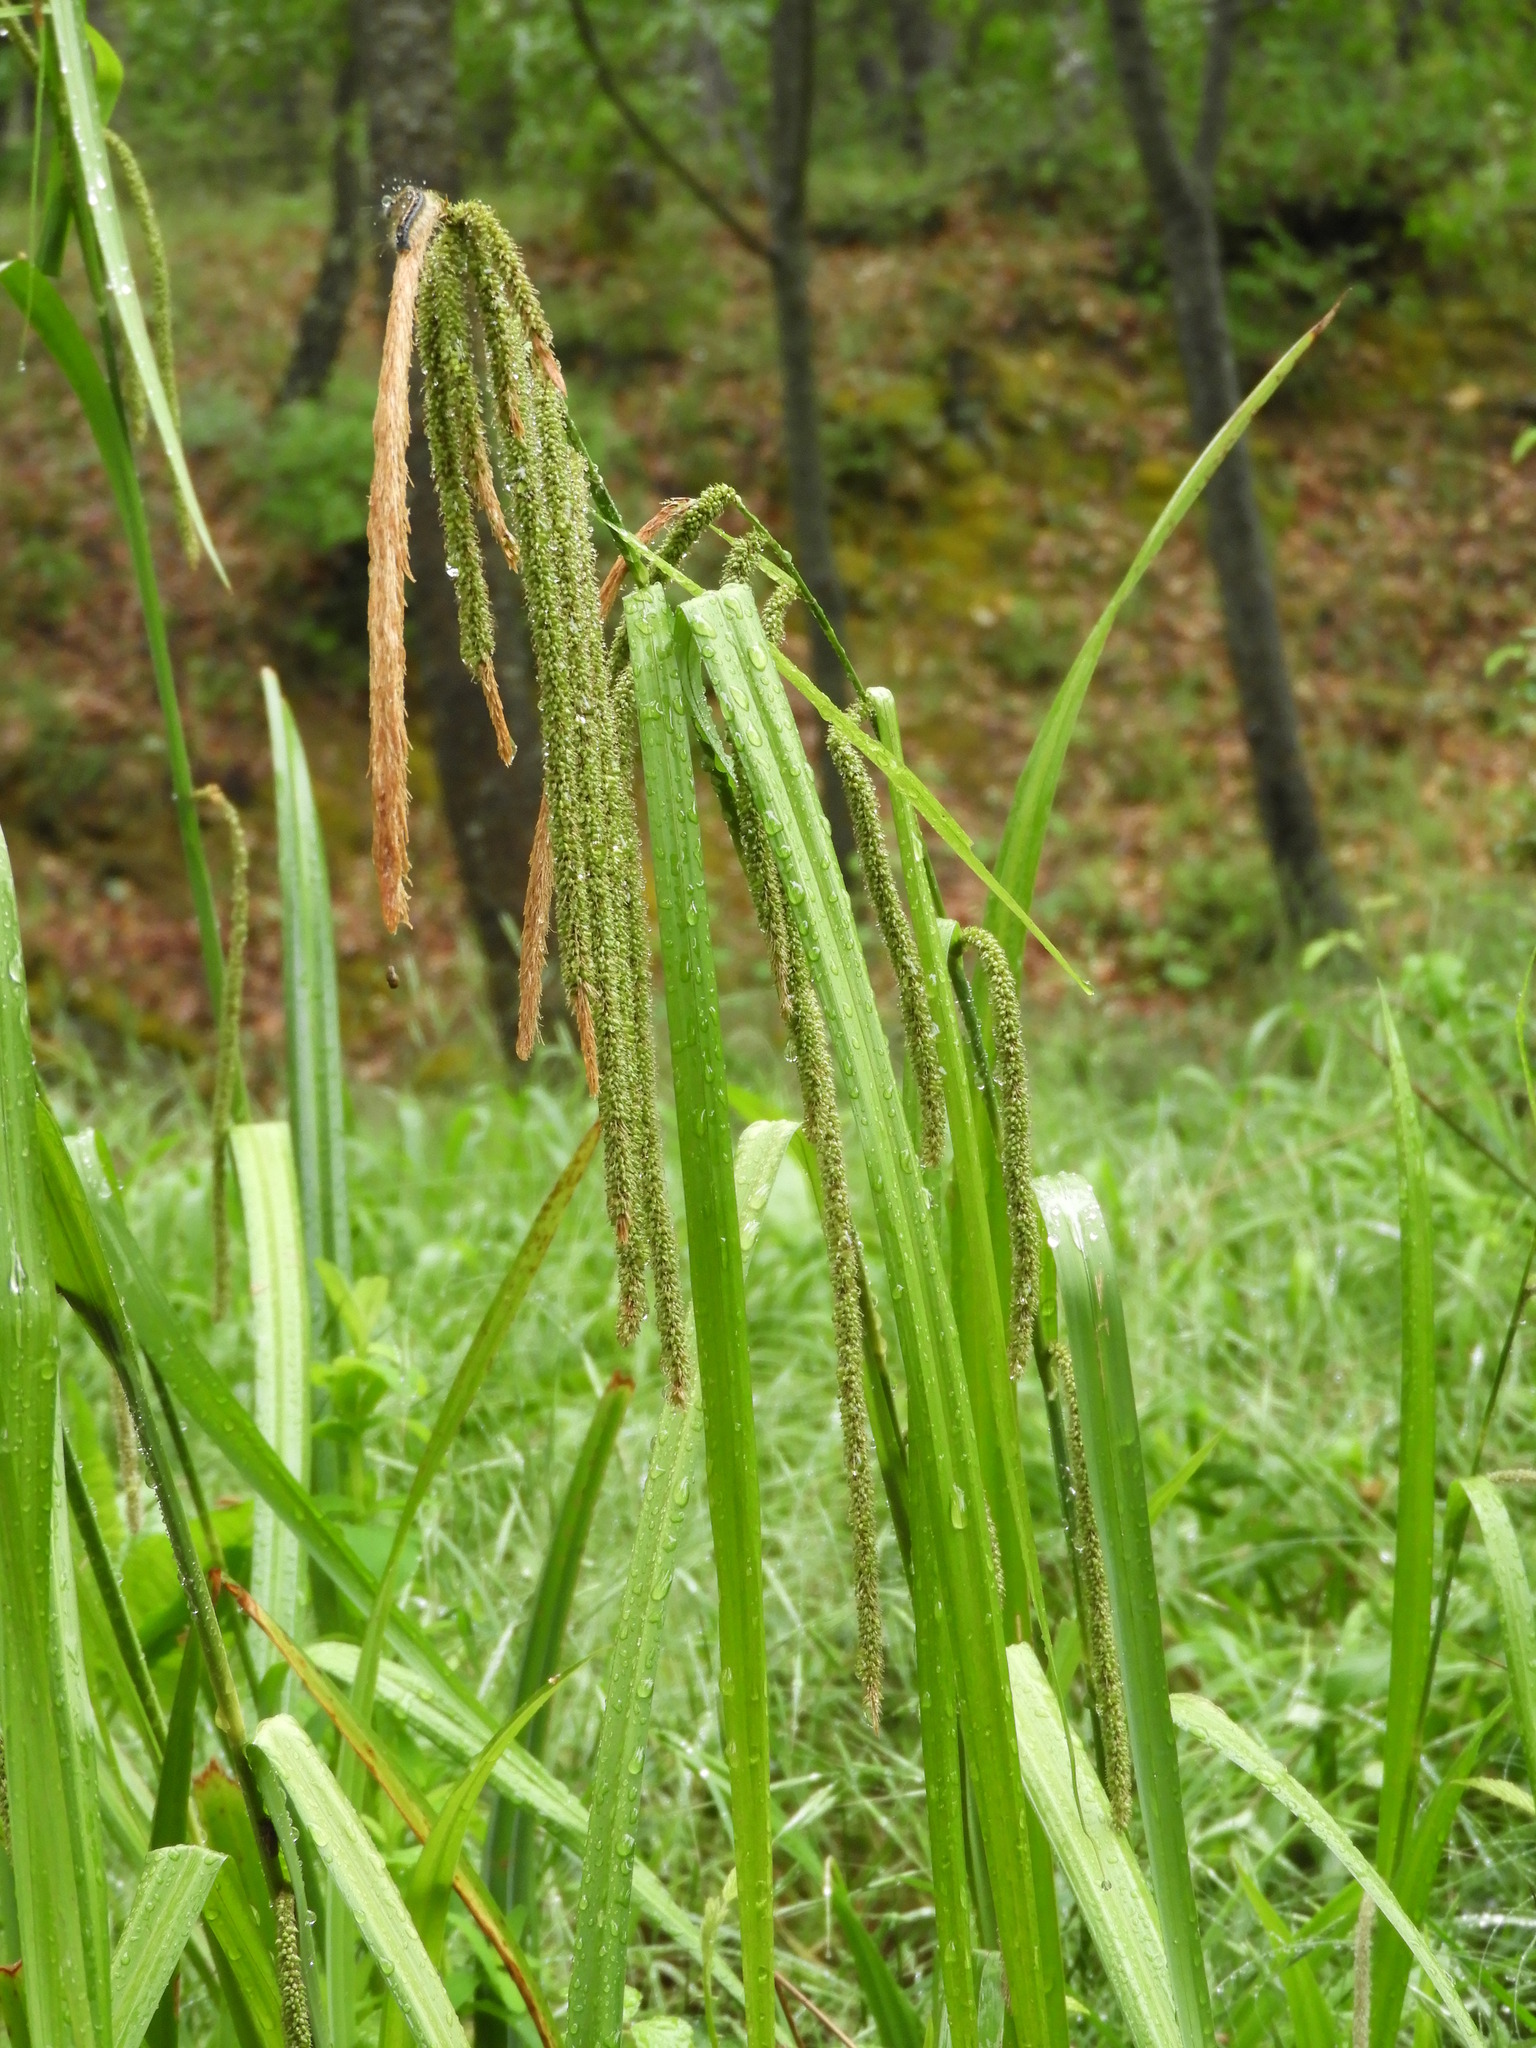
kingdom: Plantae
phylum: Tracheophyta
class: Liliopsida
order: Poales
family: Cyperaceae
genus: Carex
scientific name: Carex pendula
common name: Pendulous sedge
